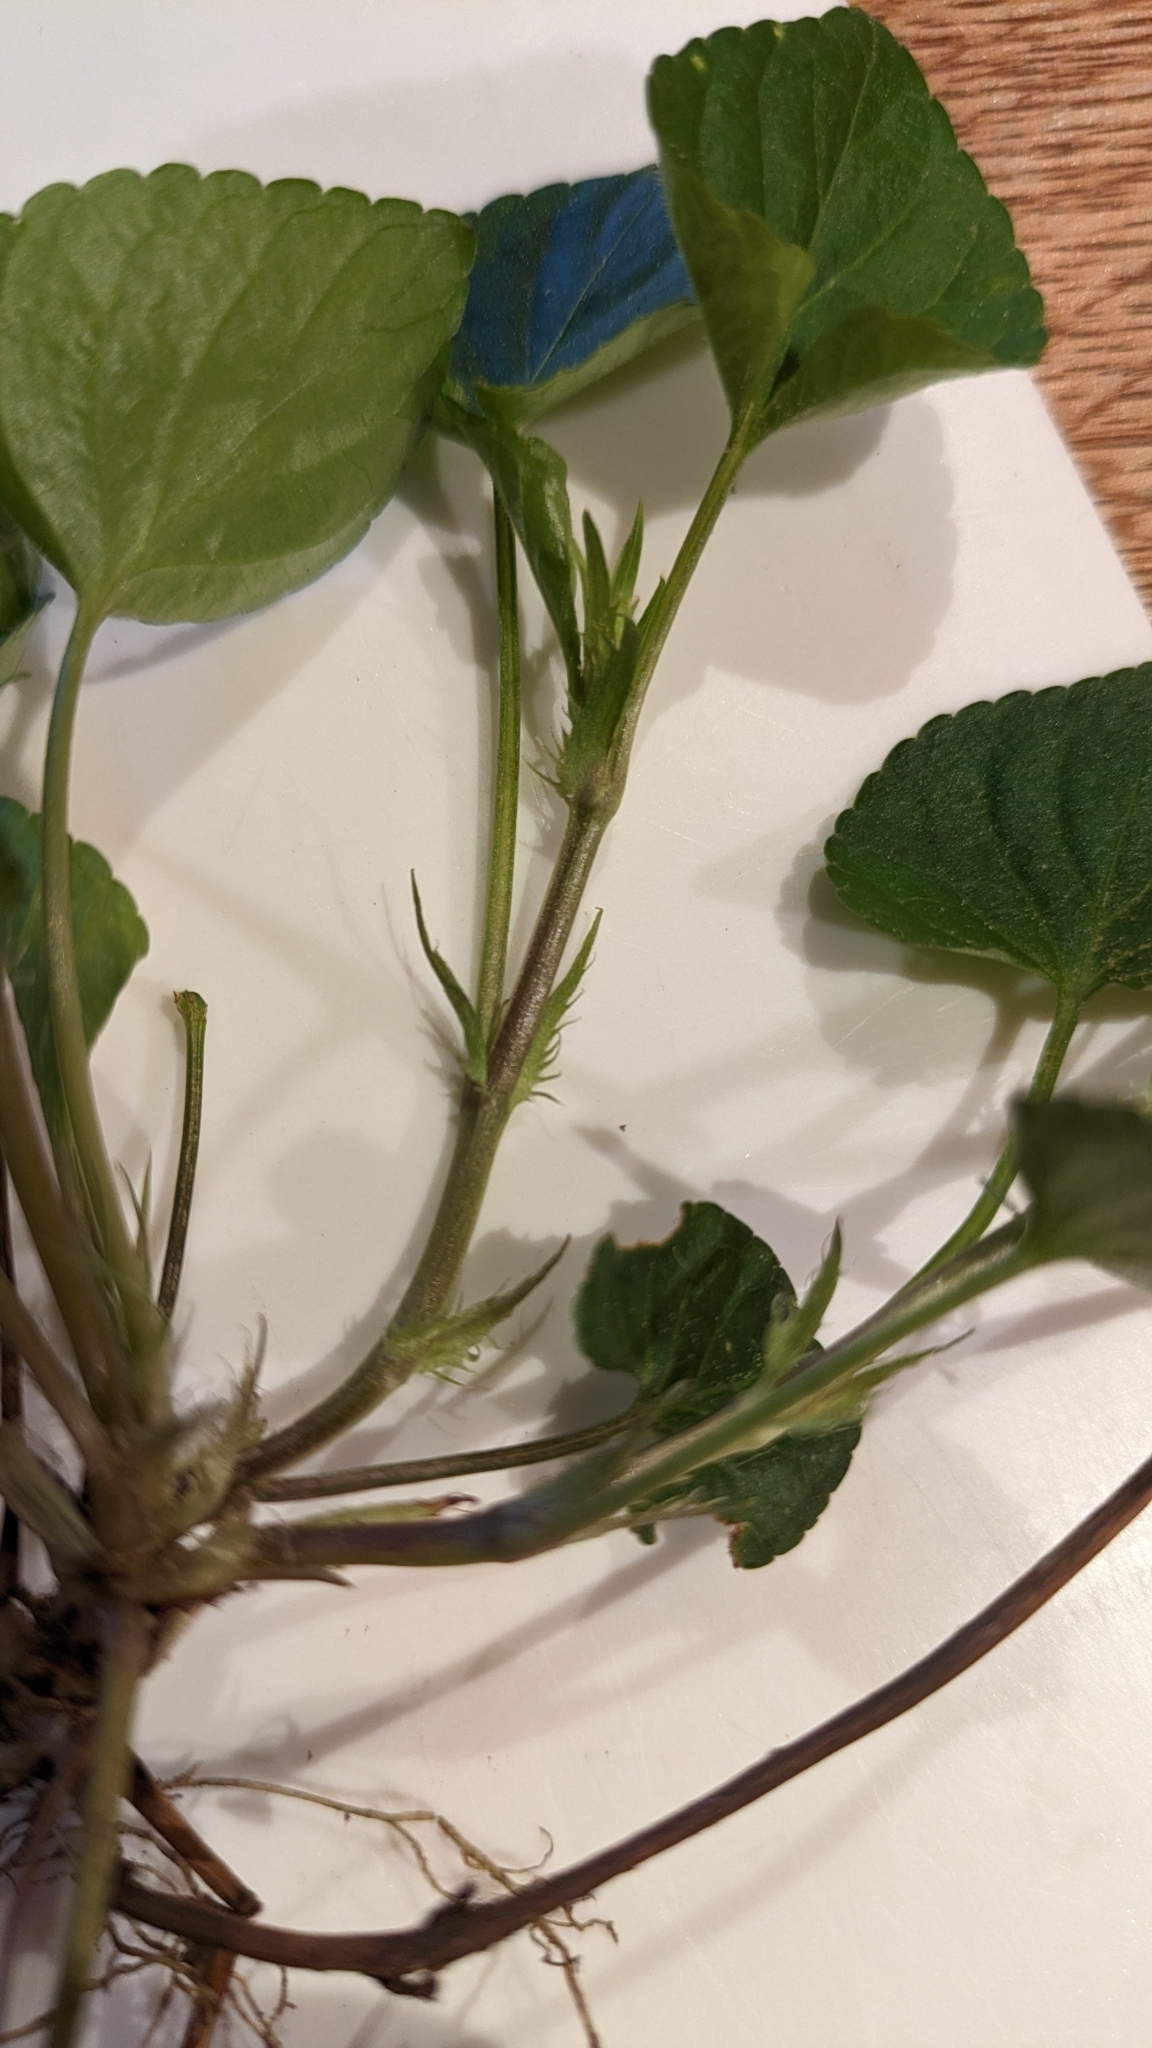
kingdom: Plantae
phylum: Tracheophyta
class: Magnoliopsida
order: Malpighiales
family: Violaceae
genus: Viola
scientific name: Viola riviniana
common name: Common dog-violet
